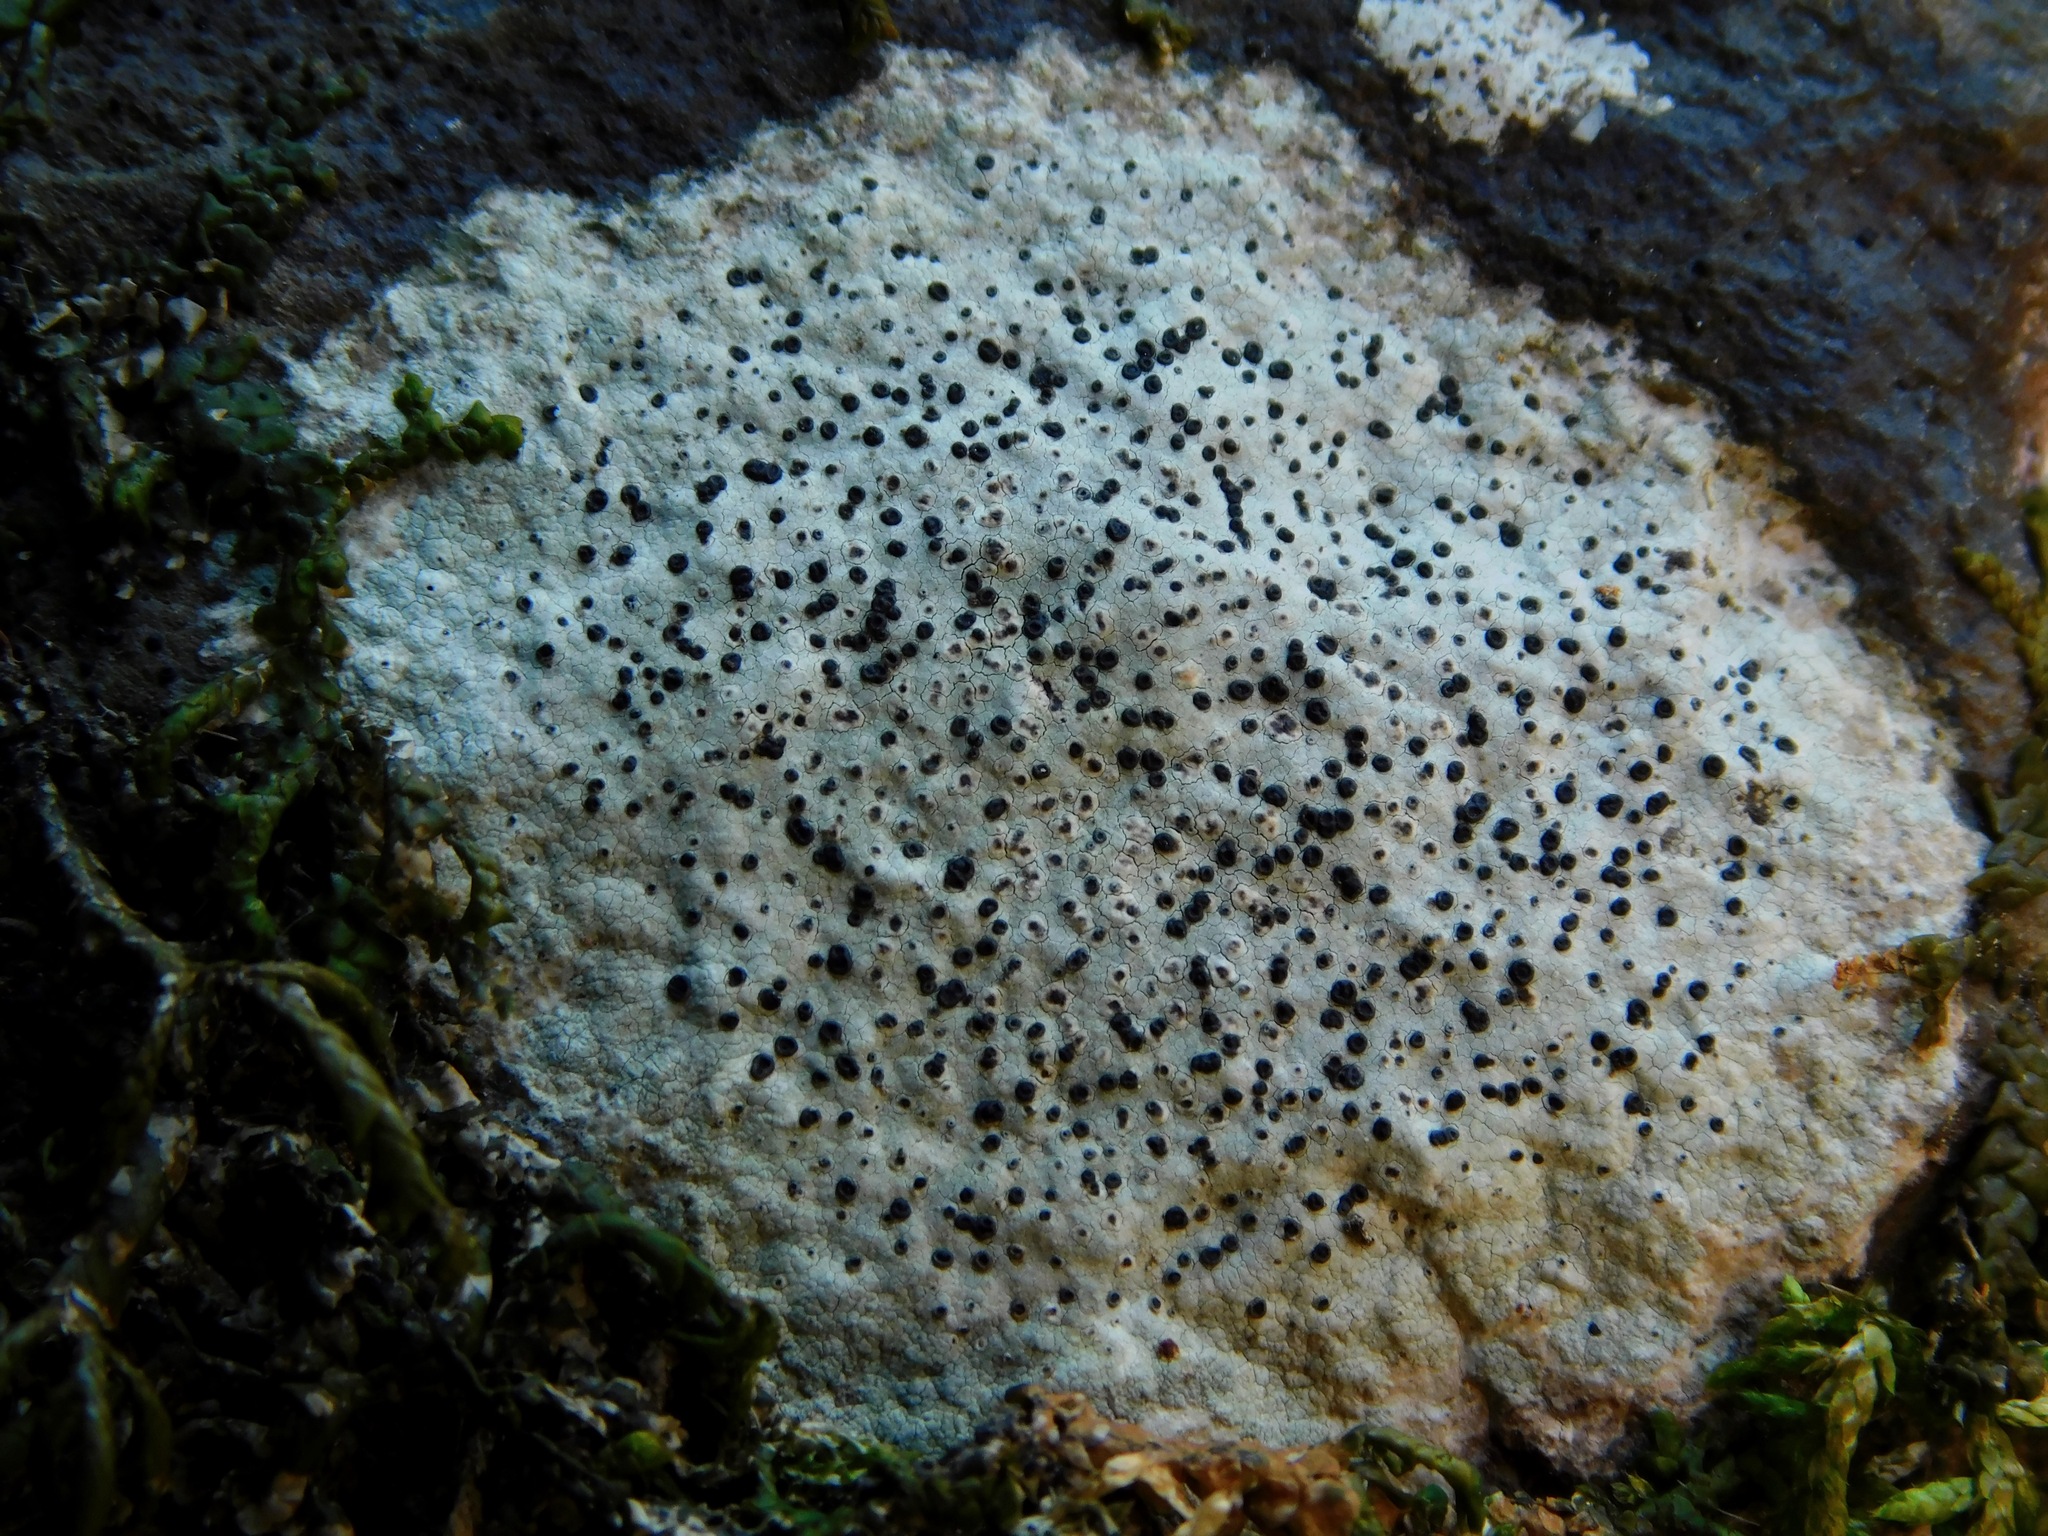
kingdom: Fungi
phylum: Ascomycota
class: Lecanoromycetes
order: Caliciales
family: Caliciaceae
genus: Buellia
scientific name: Buellia mamillana
